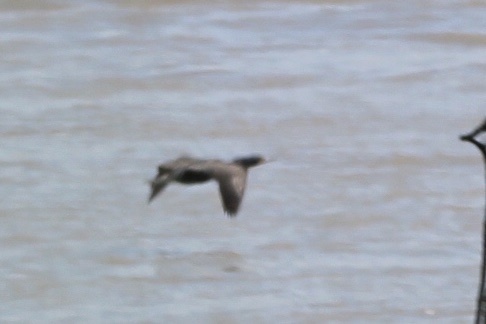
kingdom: Animalia
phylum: Chordata
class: Aves
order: Suliformes
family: Phalacrocoracidae
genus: Phalacrocorax
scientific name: Phalacrocorax auritus
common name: Double-crested cormorant
